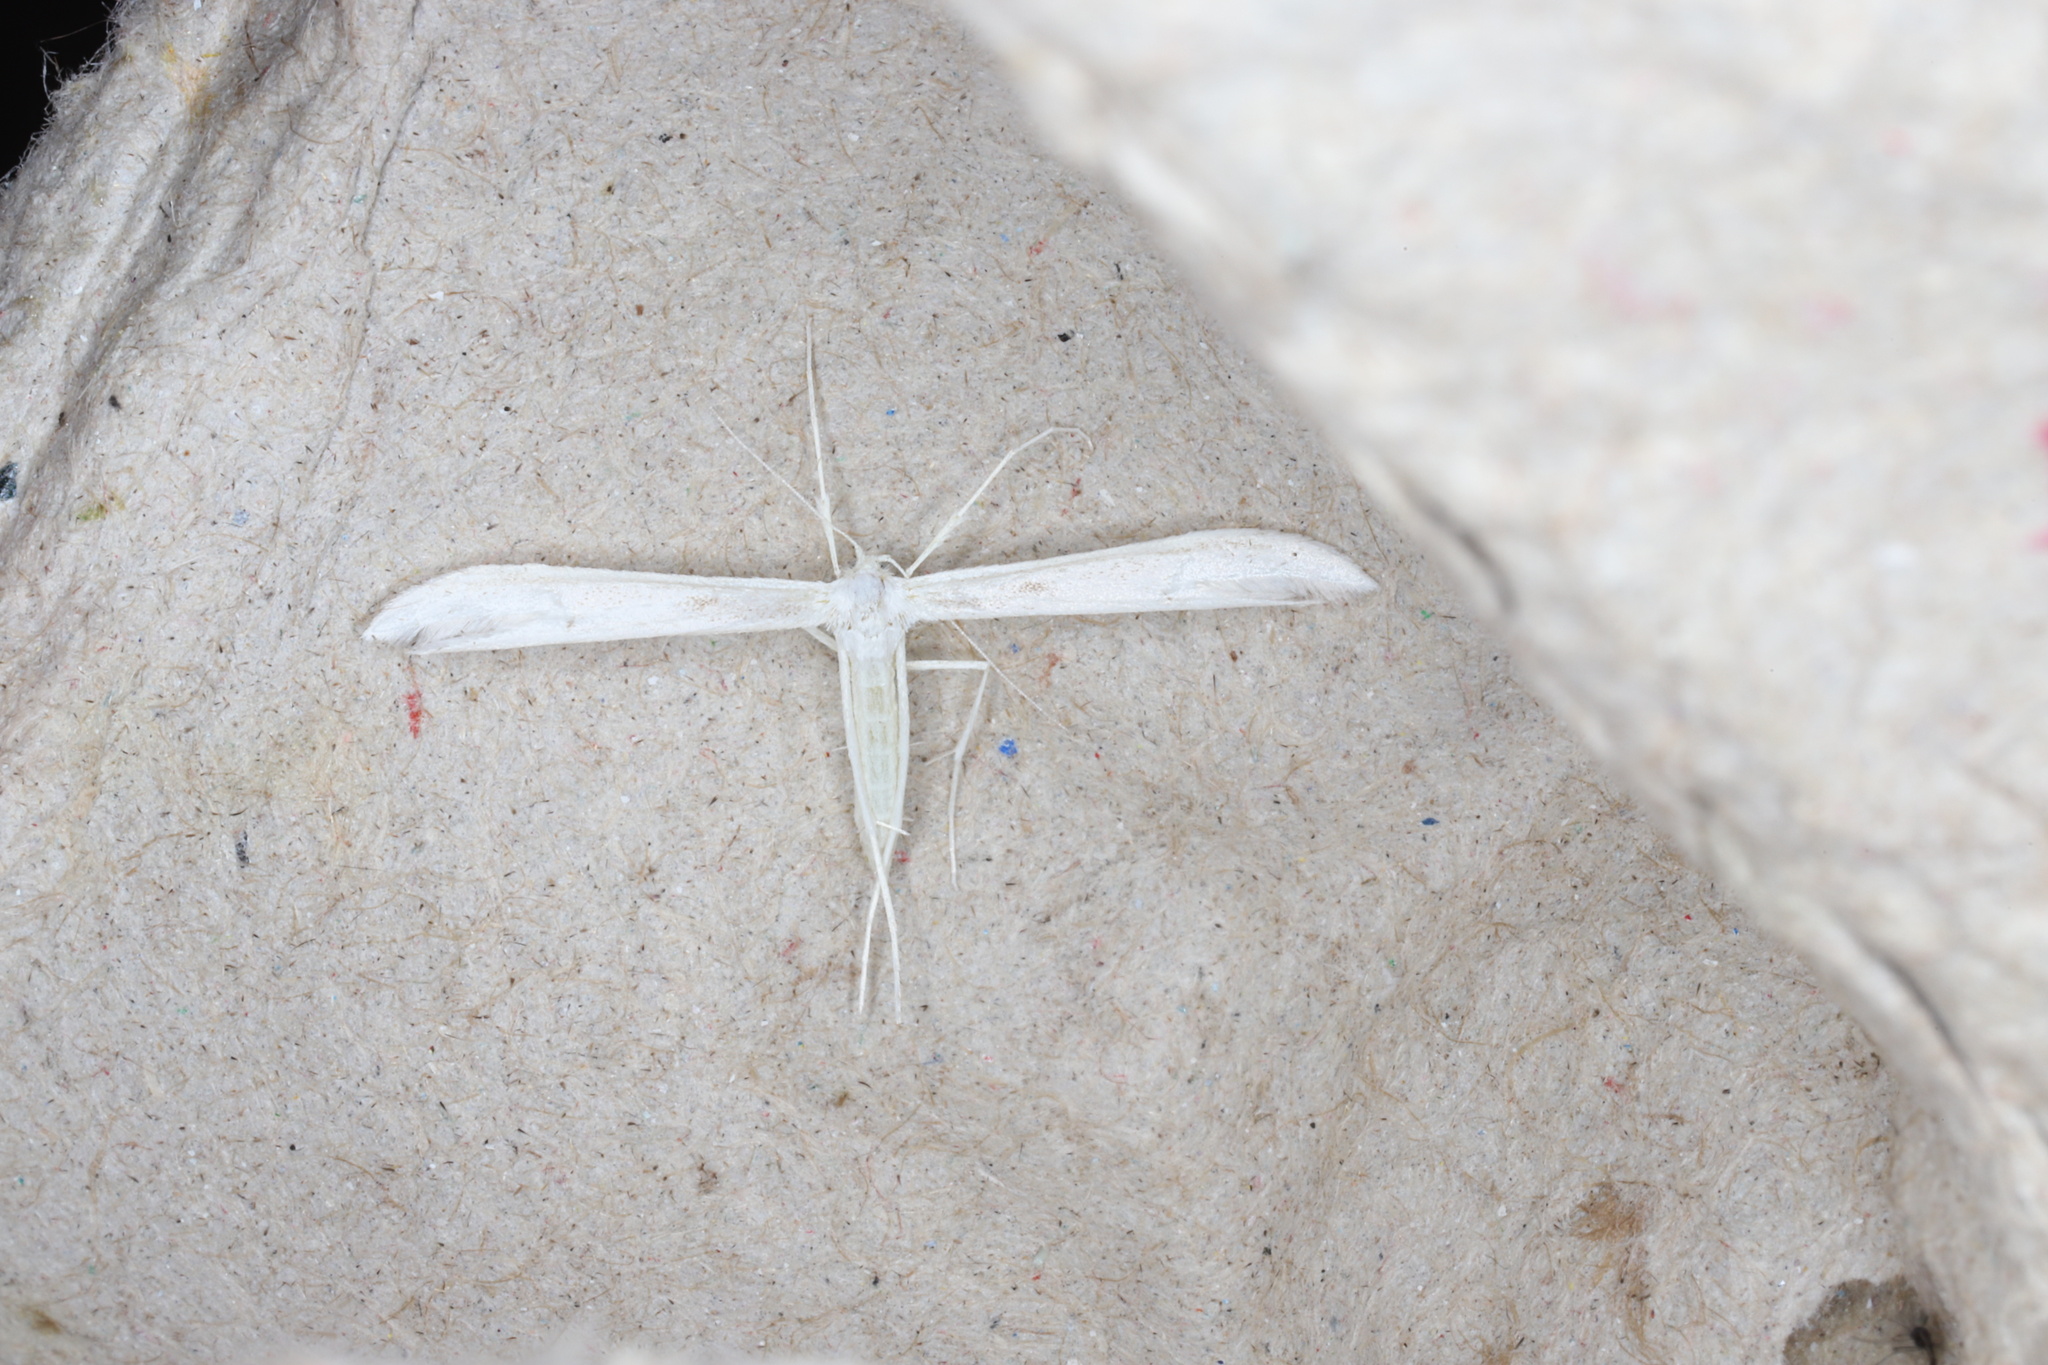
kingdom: Animalia
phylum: Arthropoda
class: Insecta
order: Lepidoptera
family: Pterophoridae
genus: Hellinsia
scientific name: Hellinsia homodactylus
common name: Plain plume moth
